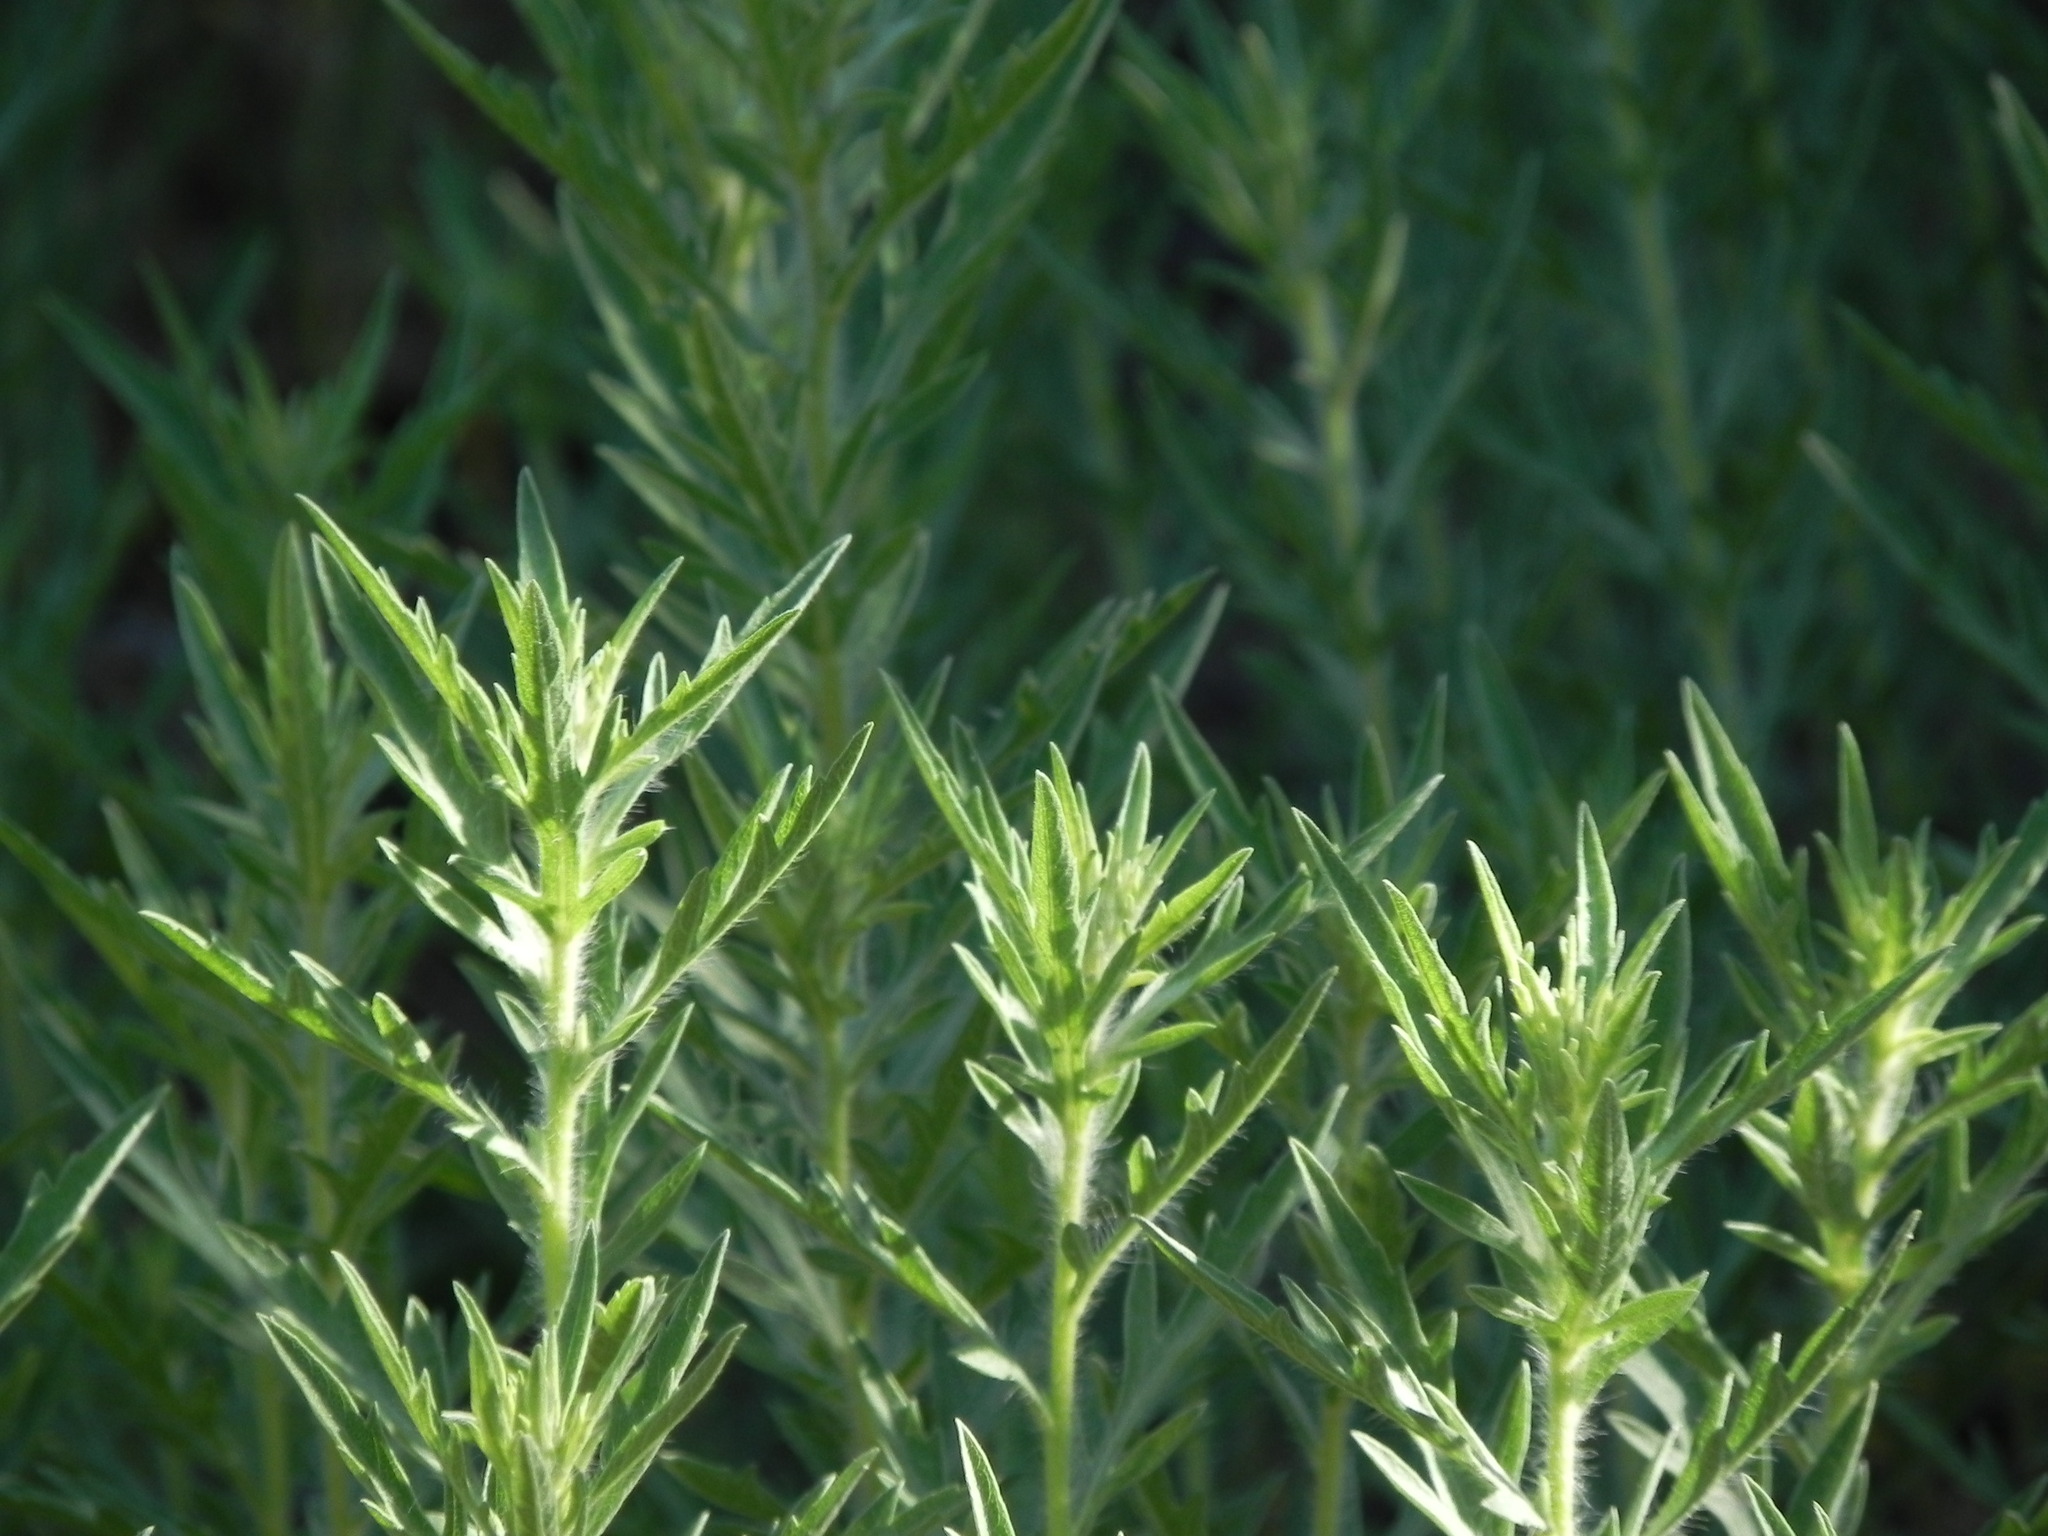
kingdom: Plantae
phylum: Tracheophyta
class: Magnoliopsida
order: Asterales
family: Asteraceae
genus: Ambrosia
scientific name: Ambrosia psilostachya
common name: Perennial ragweed
